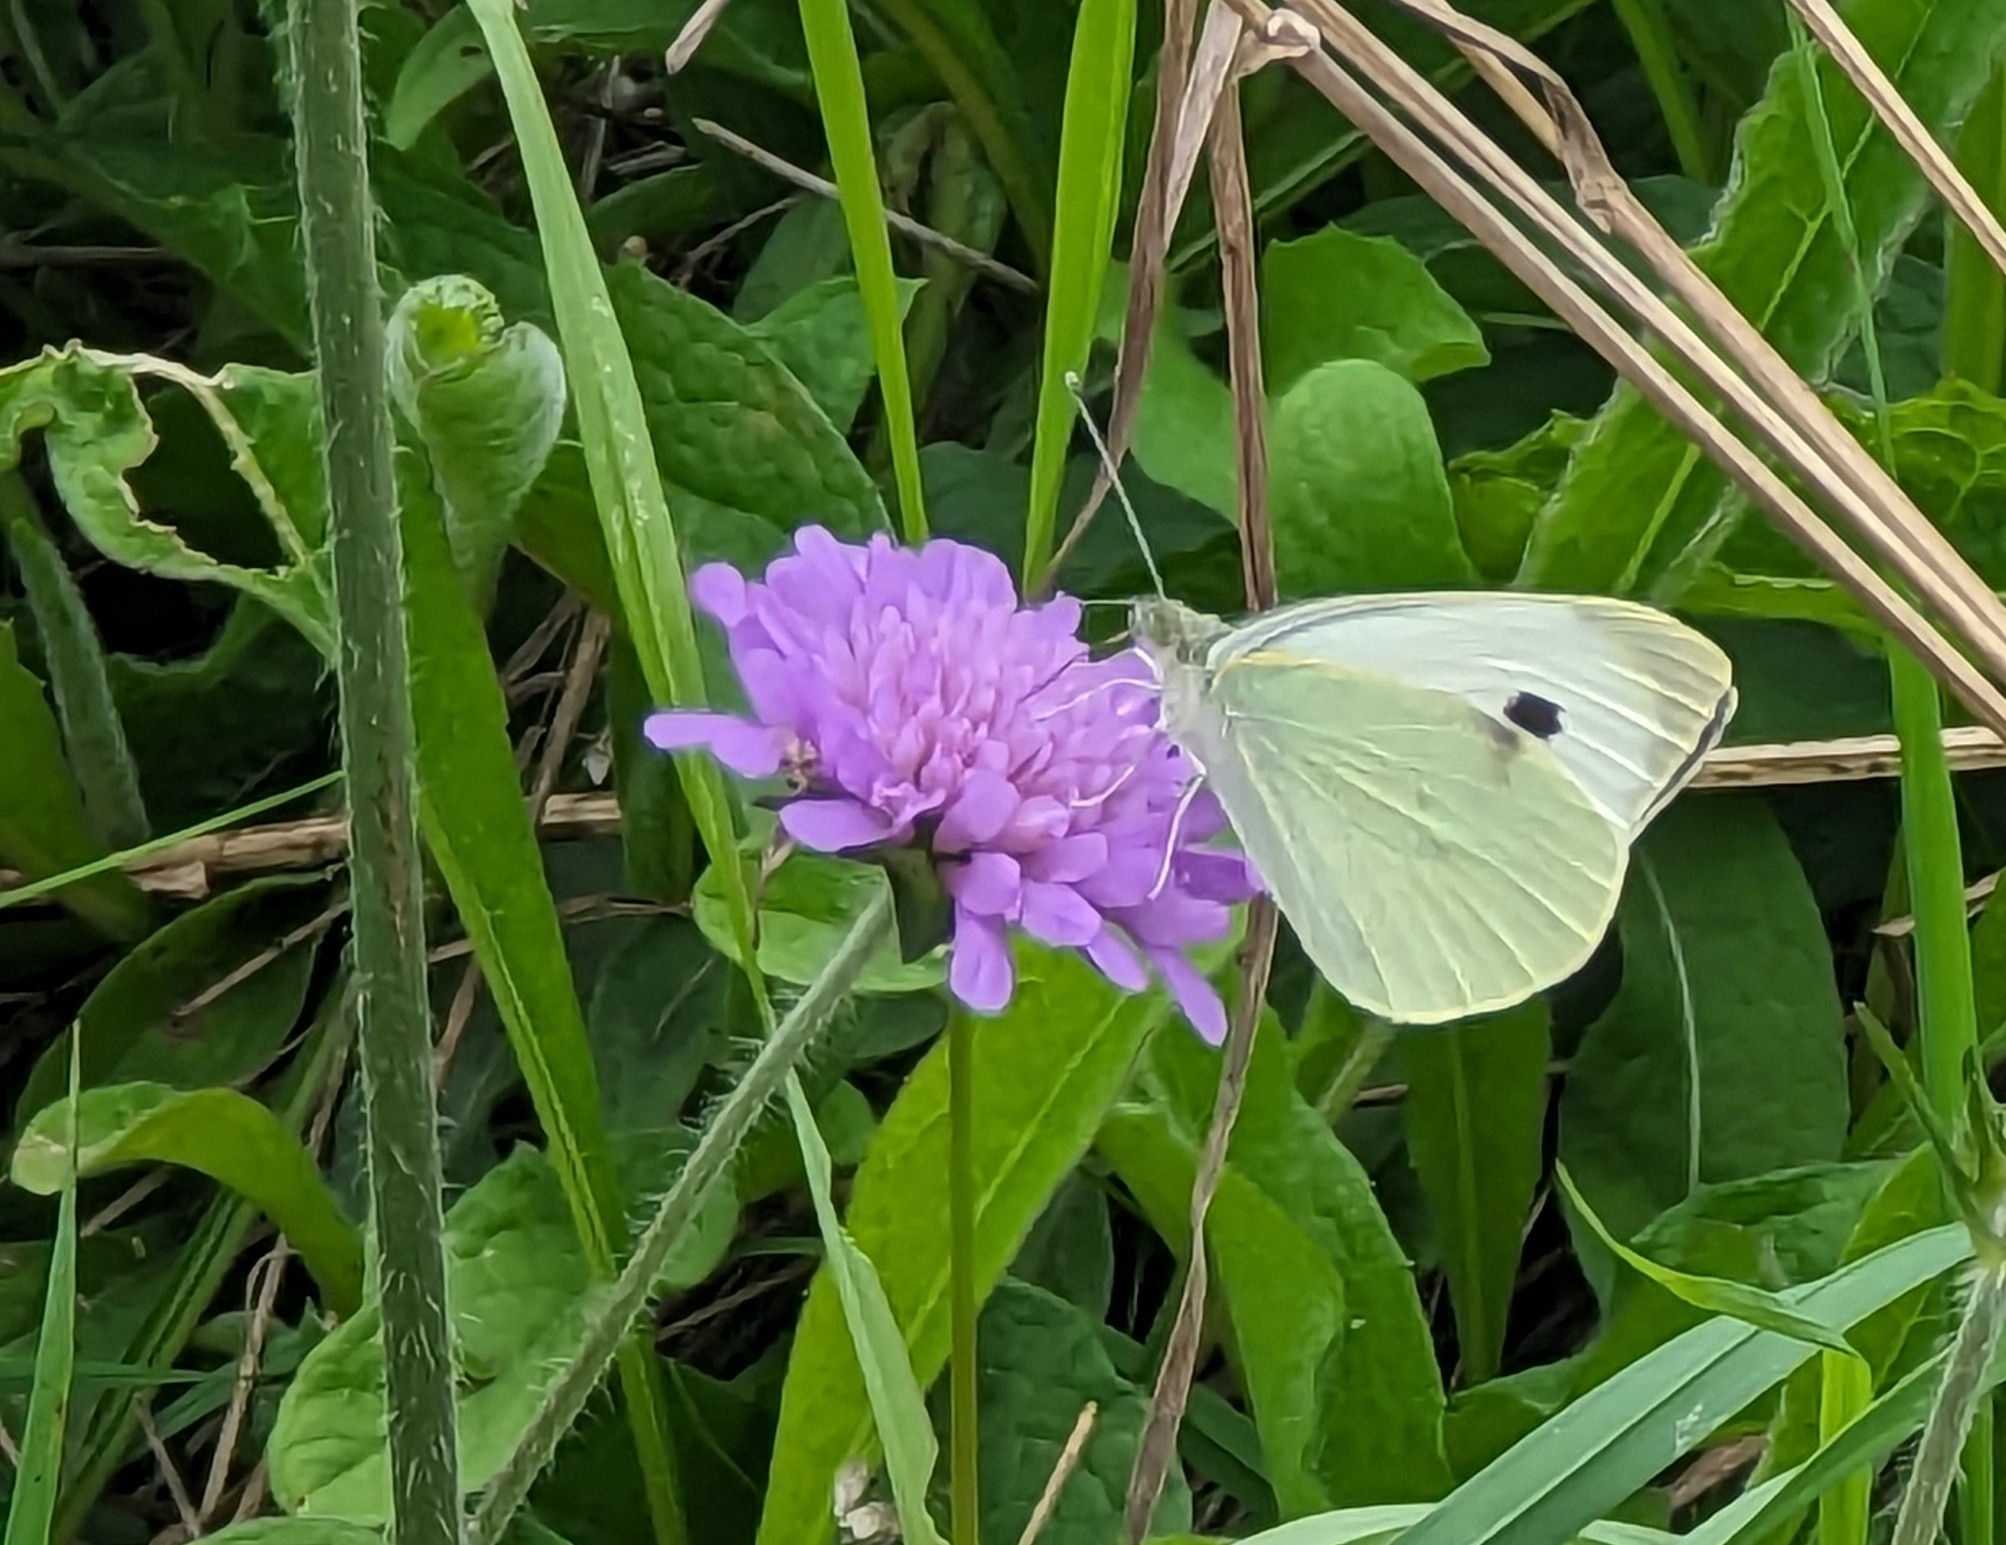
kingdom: Animalia
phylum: Arthropoda
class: Insecta
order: Lepidoptera
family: Pieridae
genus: Pieris
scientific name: Pieris brassicae
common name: Large white
